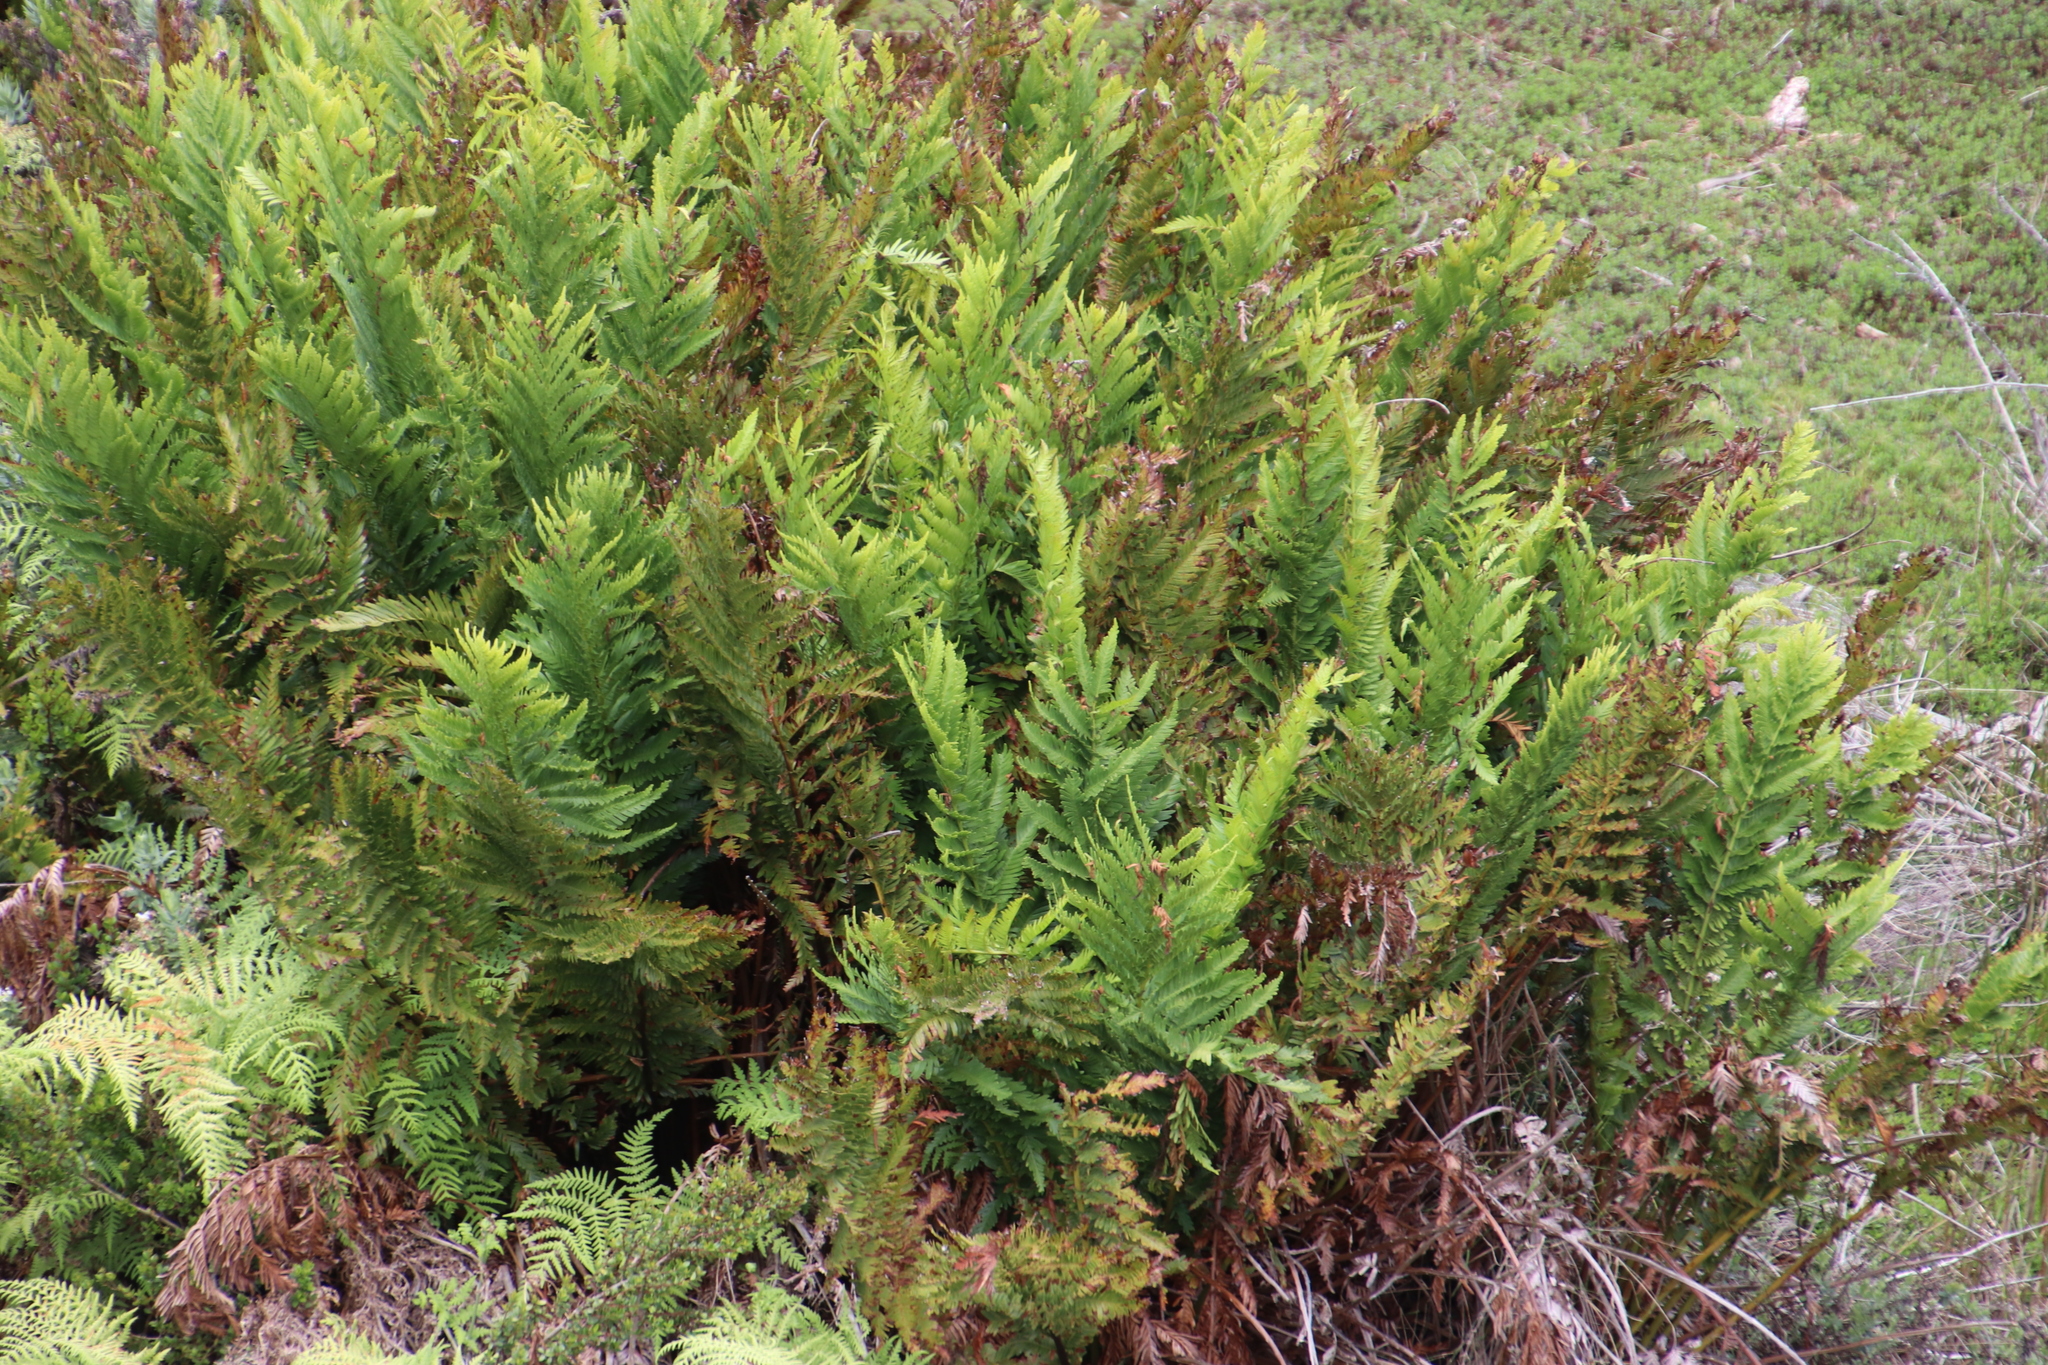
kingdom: Plantae
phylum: Tracheophyta
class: Polypodiopsida
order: Osmundales
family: Osmundaceae
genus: Todea
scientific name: Todea barbara
